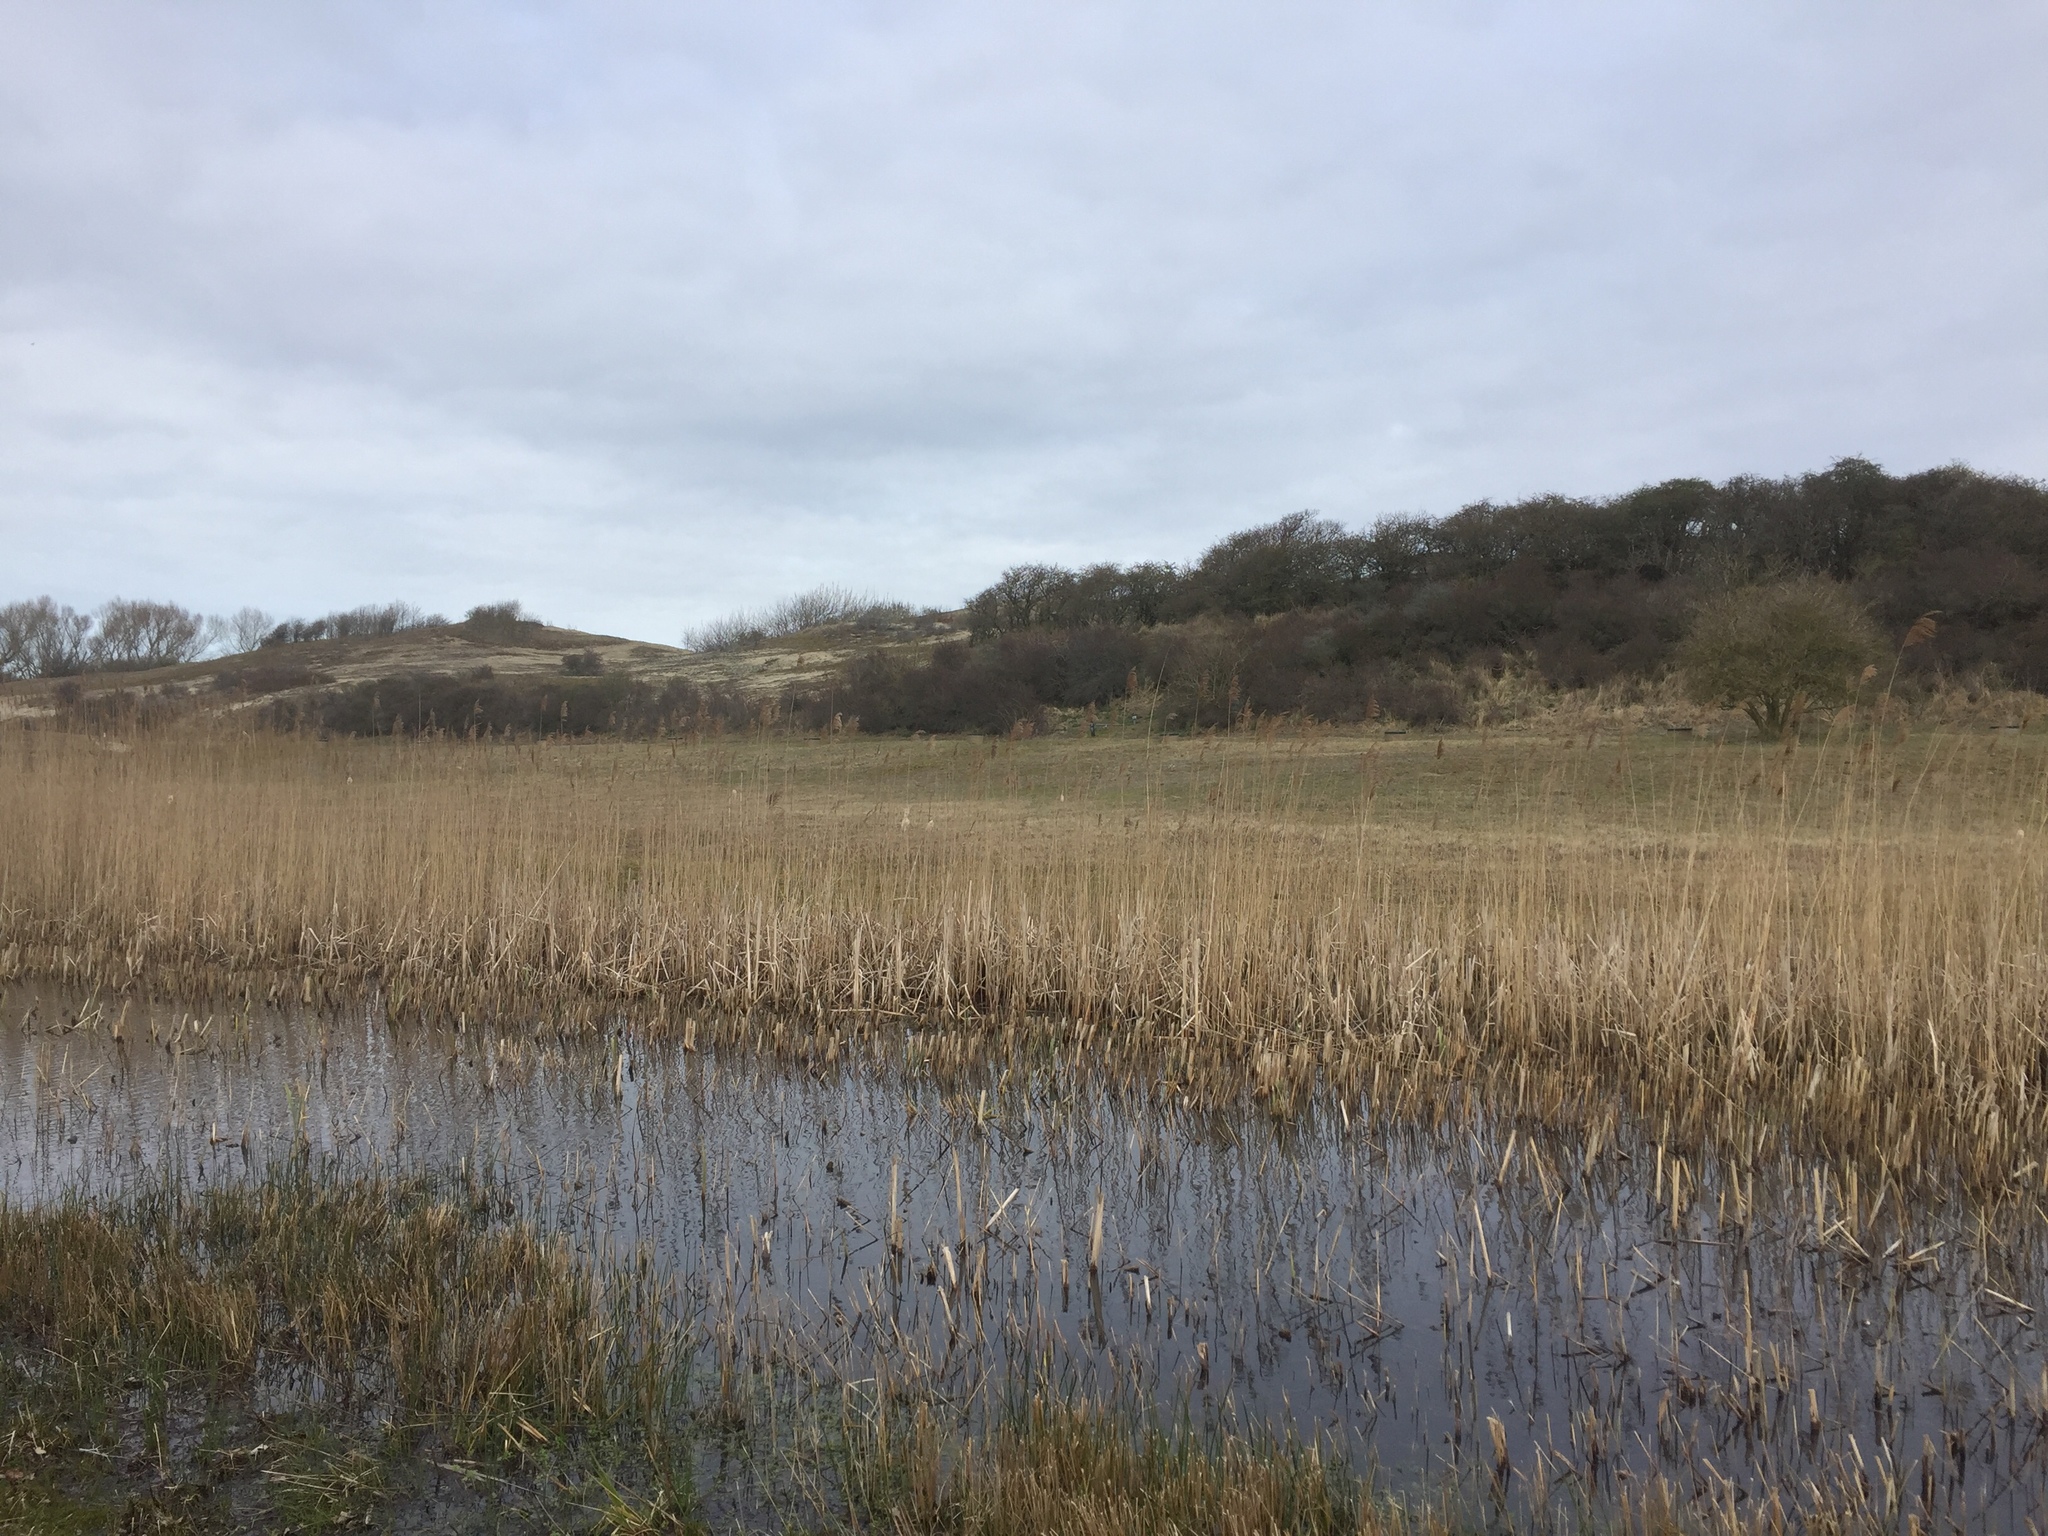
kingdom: Plantae
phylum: Tracheophyta
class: Liliopsida
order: Poales
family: Poaceae
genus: Phragmites
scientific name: Phragmites australis
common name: Common reed
